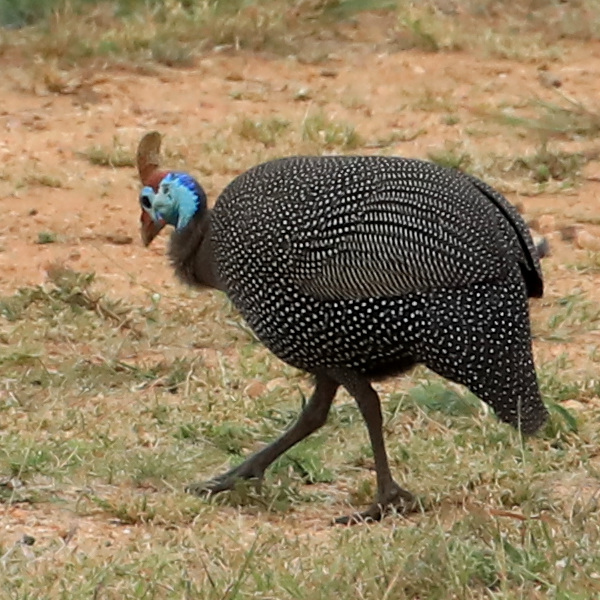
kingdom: Animalia
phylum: Chordata
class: Aves
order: Galliformes
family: Numididae
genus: Numida
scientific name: Numida meleagris
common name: Helmeted guineafowl
